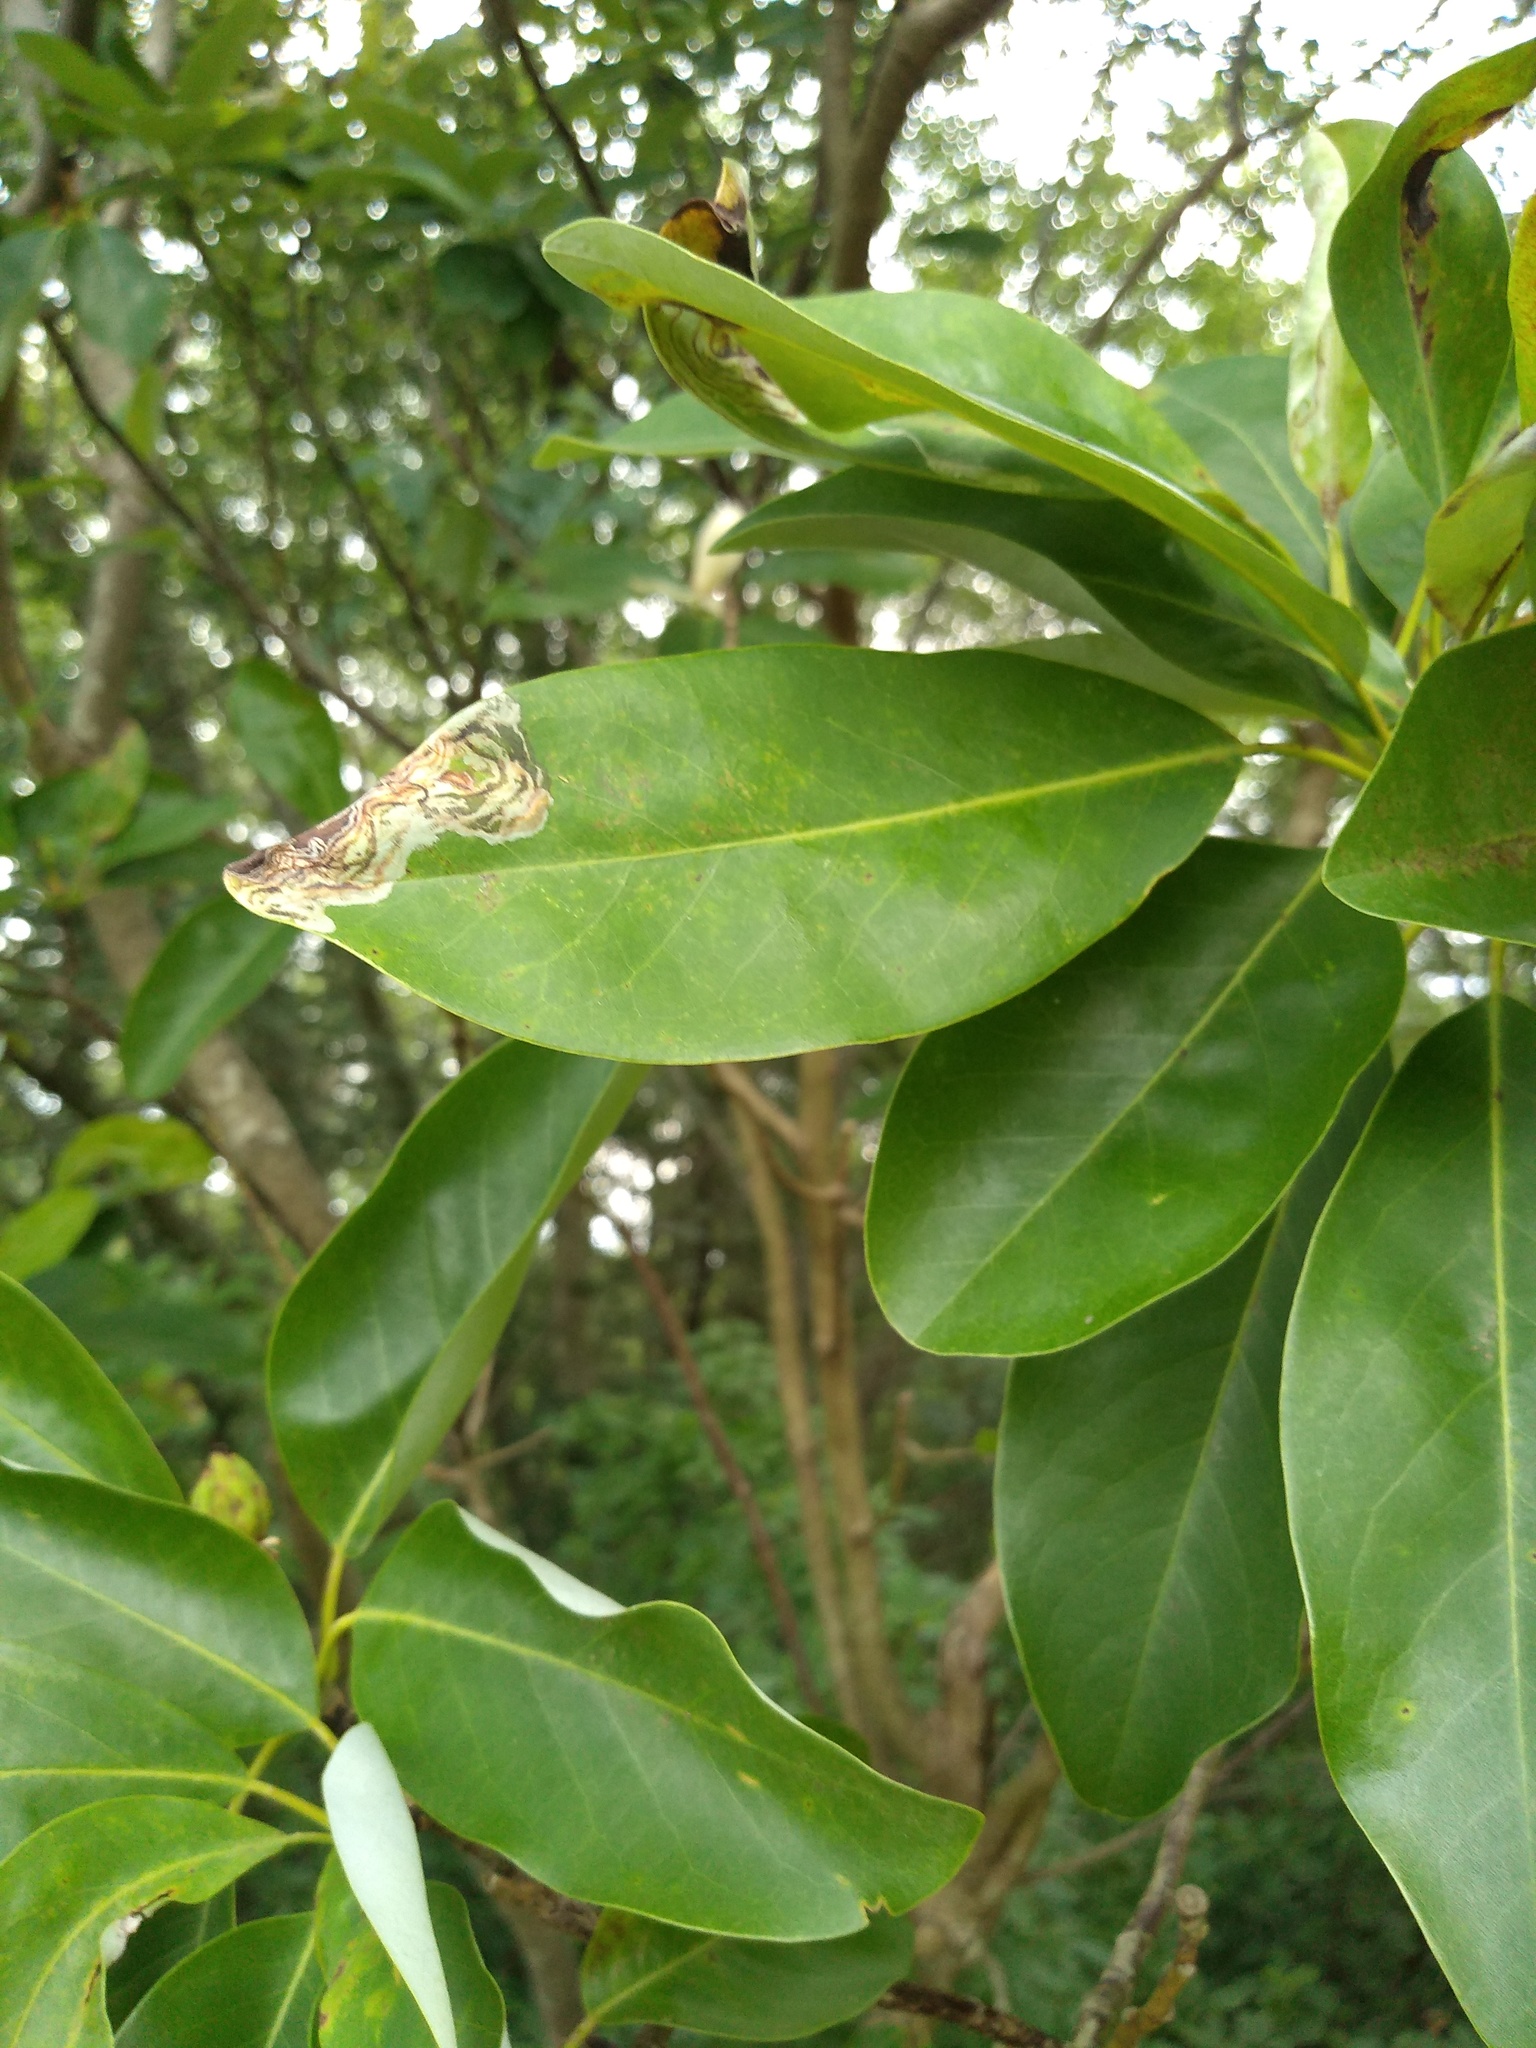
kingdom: Animalia
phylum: Arthropoda
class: Insecta
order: Lepidoptera
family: Gracillariidae
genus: Phyllocnistis
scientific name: Phyllocnistis liriodendronella
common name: Tulip tree leaf miner
